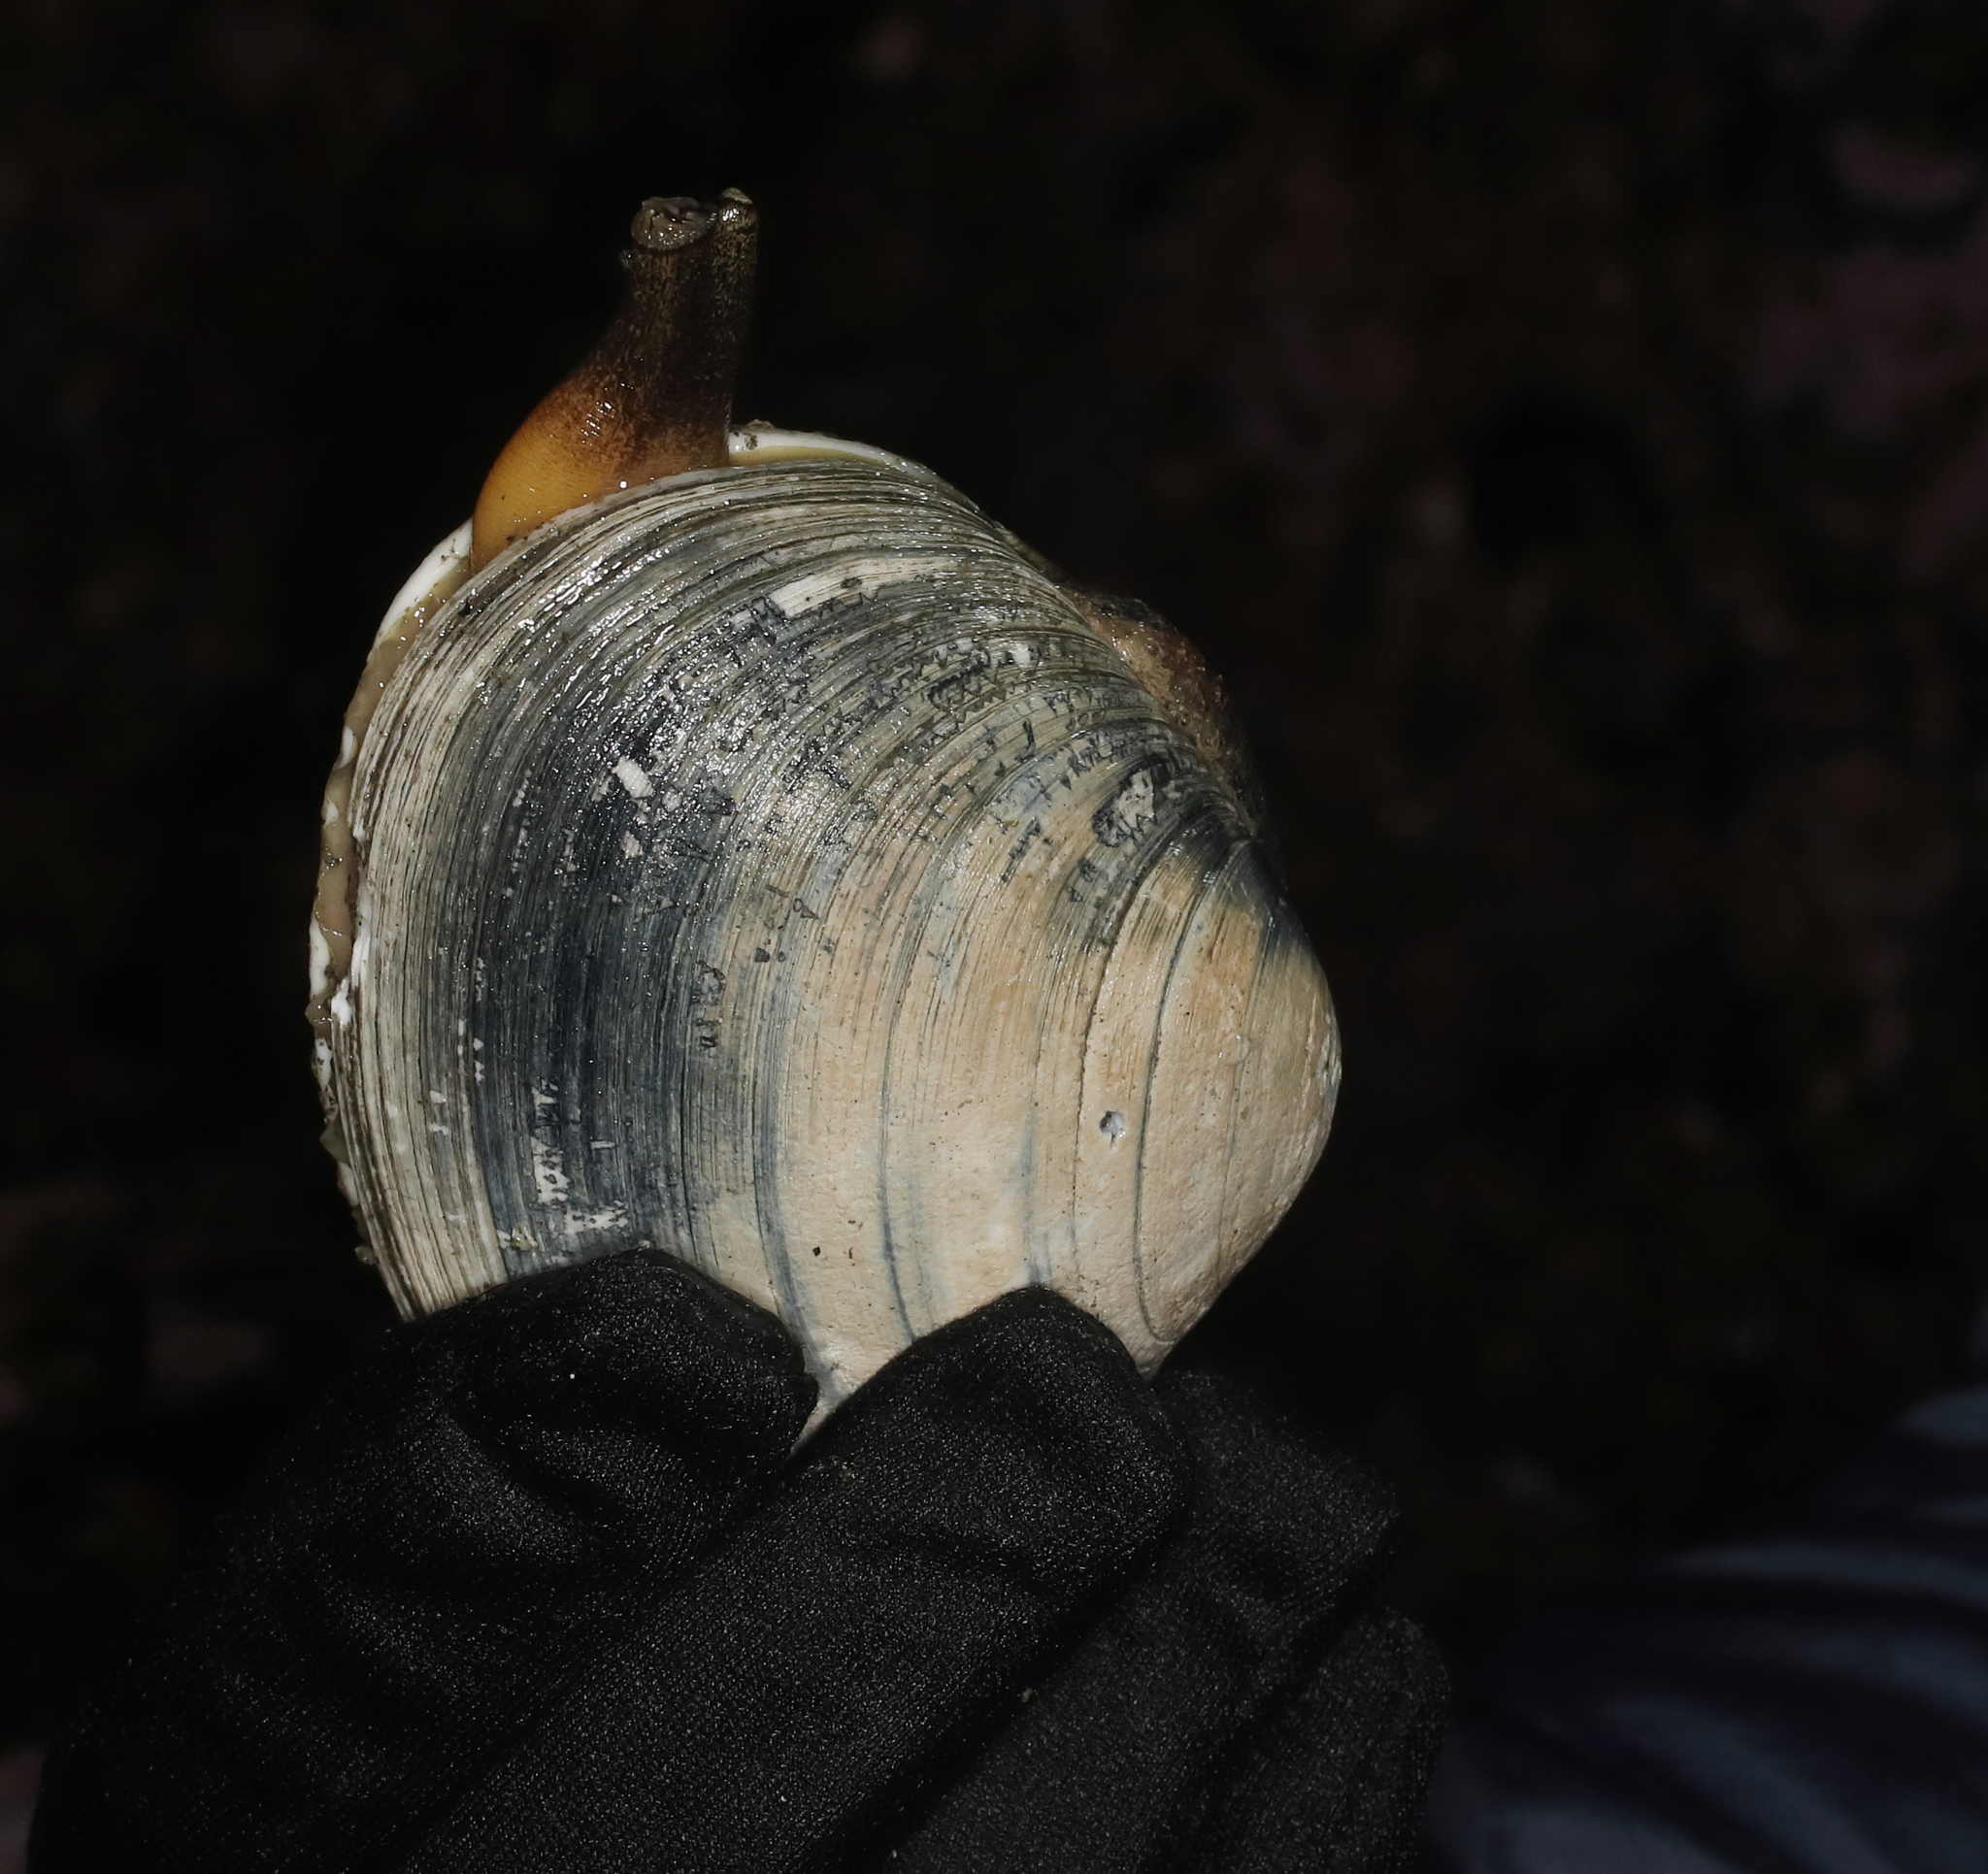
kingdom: Animalia
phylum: Mollusca
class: Bivalvia
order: Venerida
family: Veneridae
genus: Saxidomus
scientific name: Saxidomus gigantea
